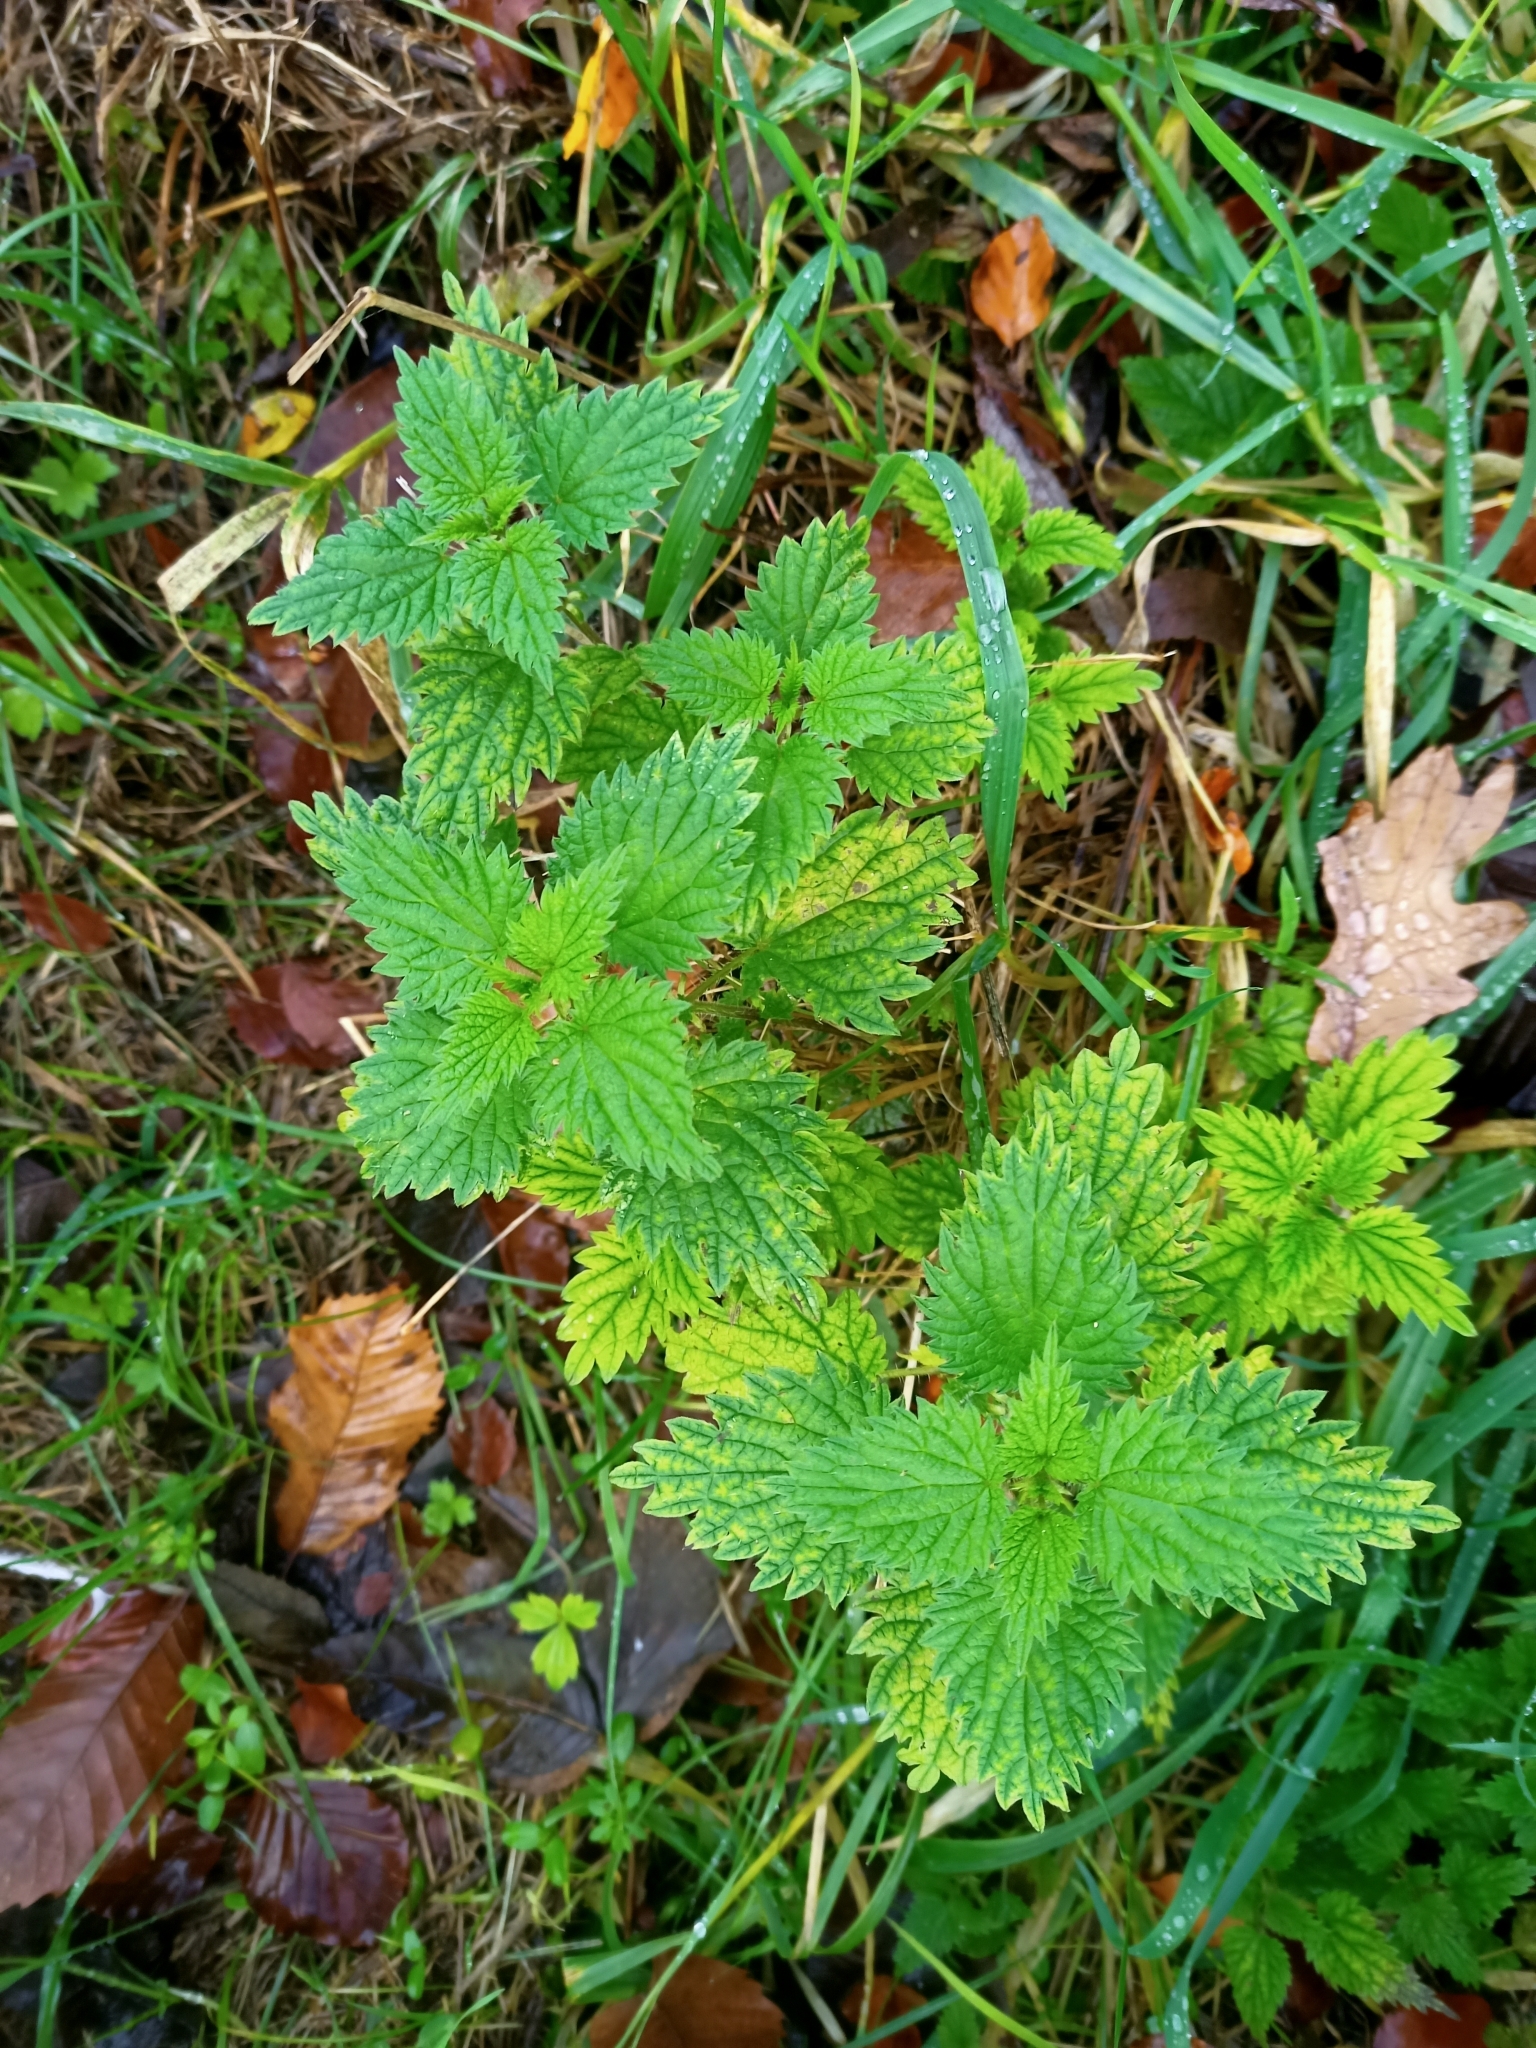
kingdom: Plantae
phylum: Tracheophyta
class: Magnoliopsida
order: Rosales
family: Urticaceae
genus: Urtica
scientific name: Urtica dioica
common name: Common nettle
